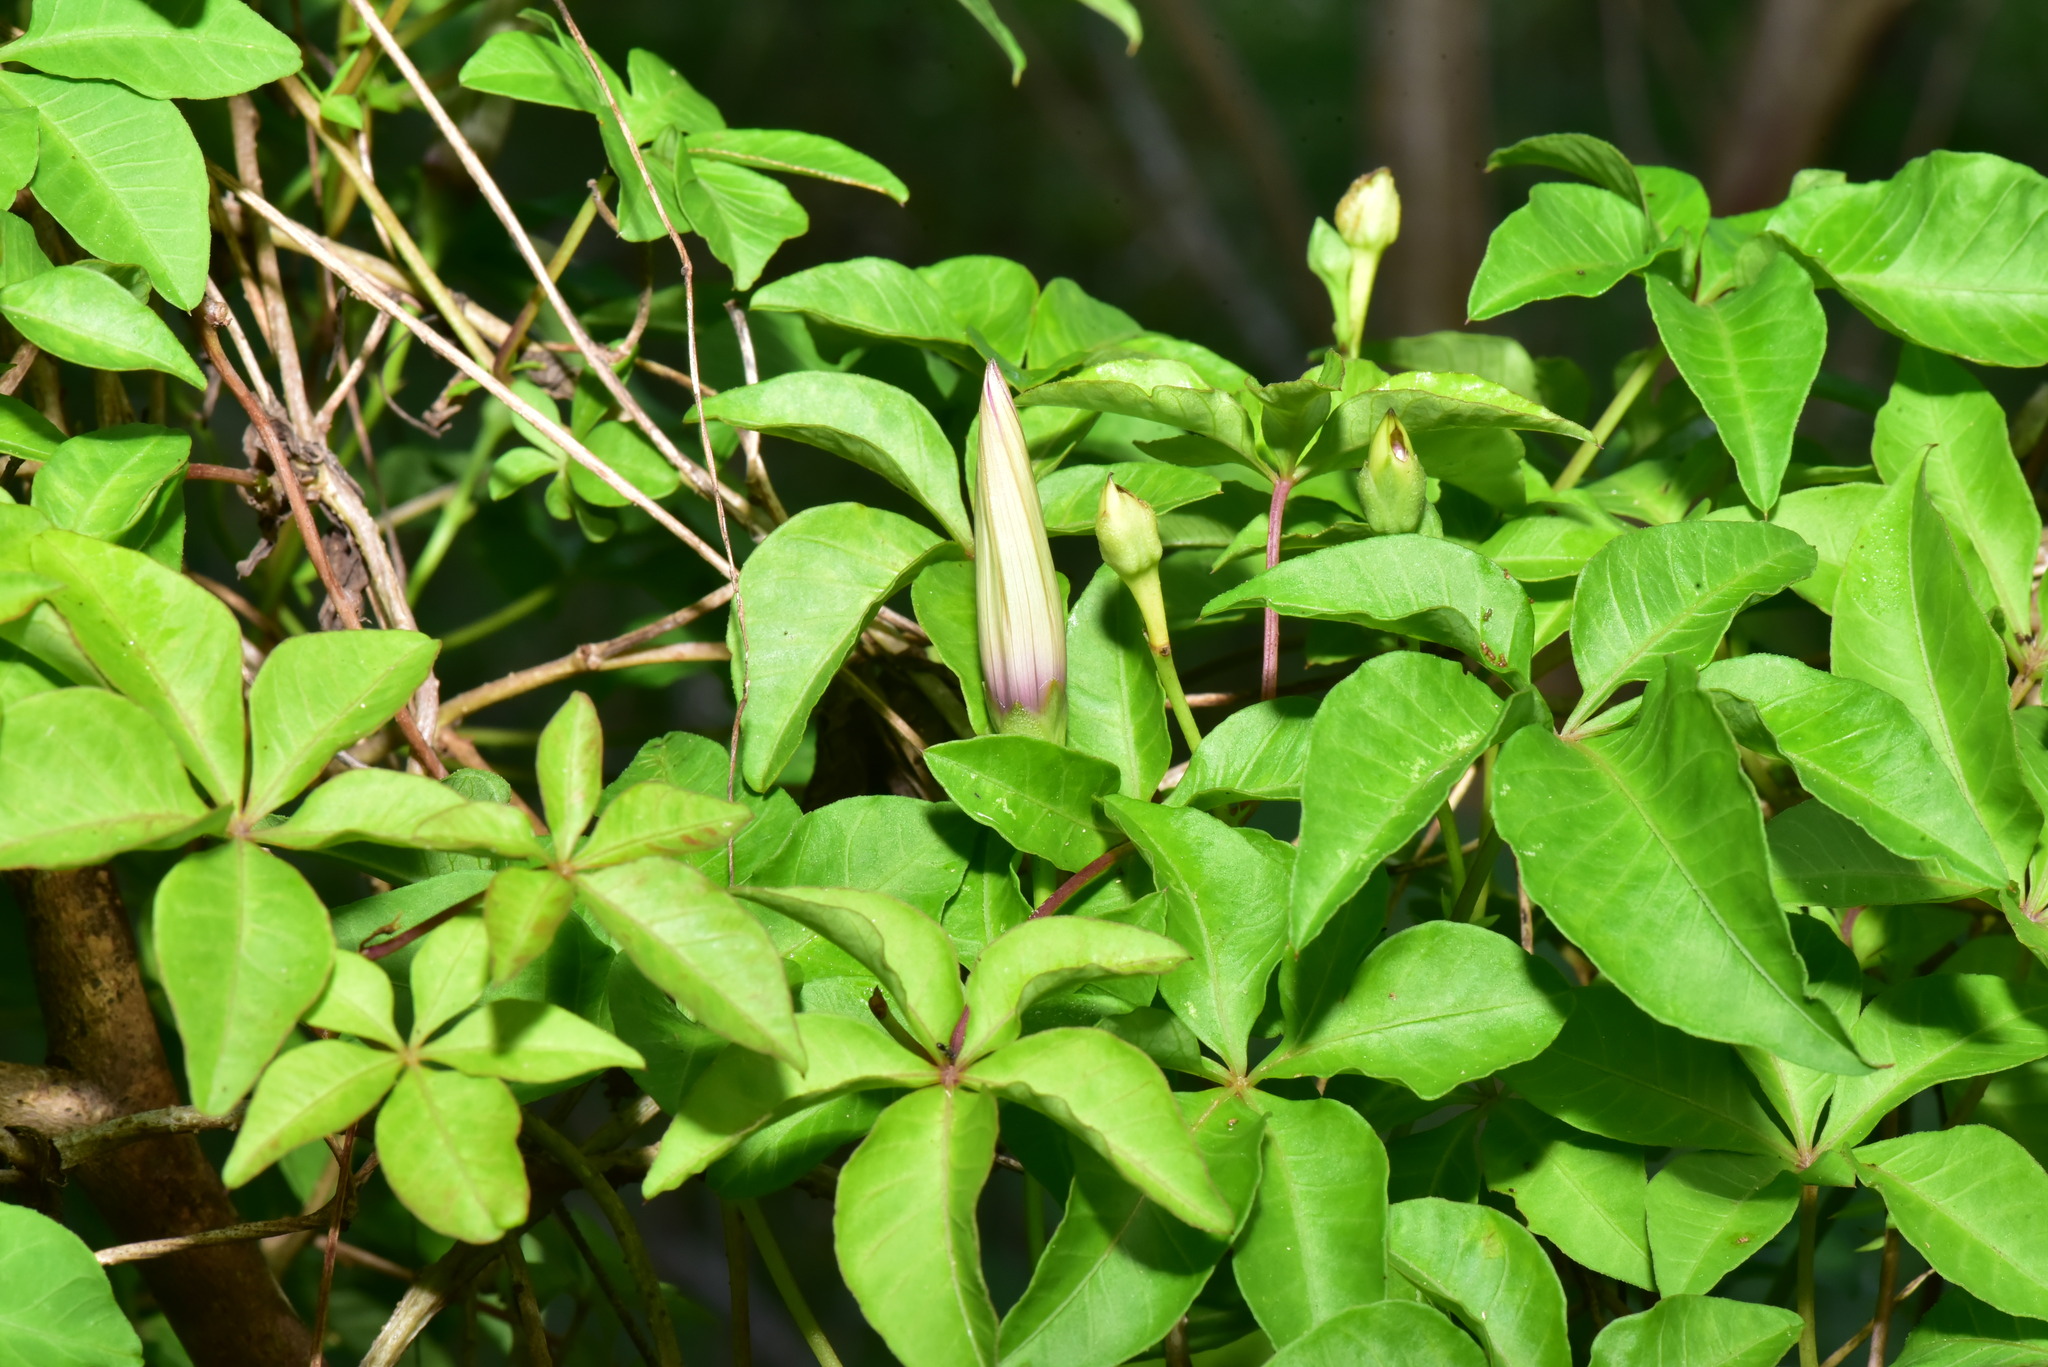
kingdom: Plantae
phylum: Tracheophyta
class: Magnoliopsida
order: Solanales
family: Convolvulaceae
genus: Ipomoea
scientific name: Ipomoea cairica
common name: Mile a minute vine
